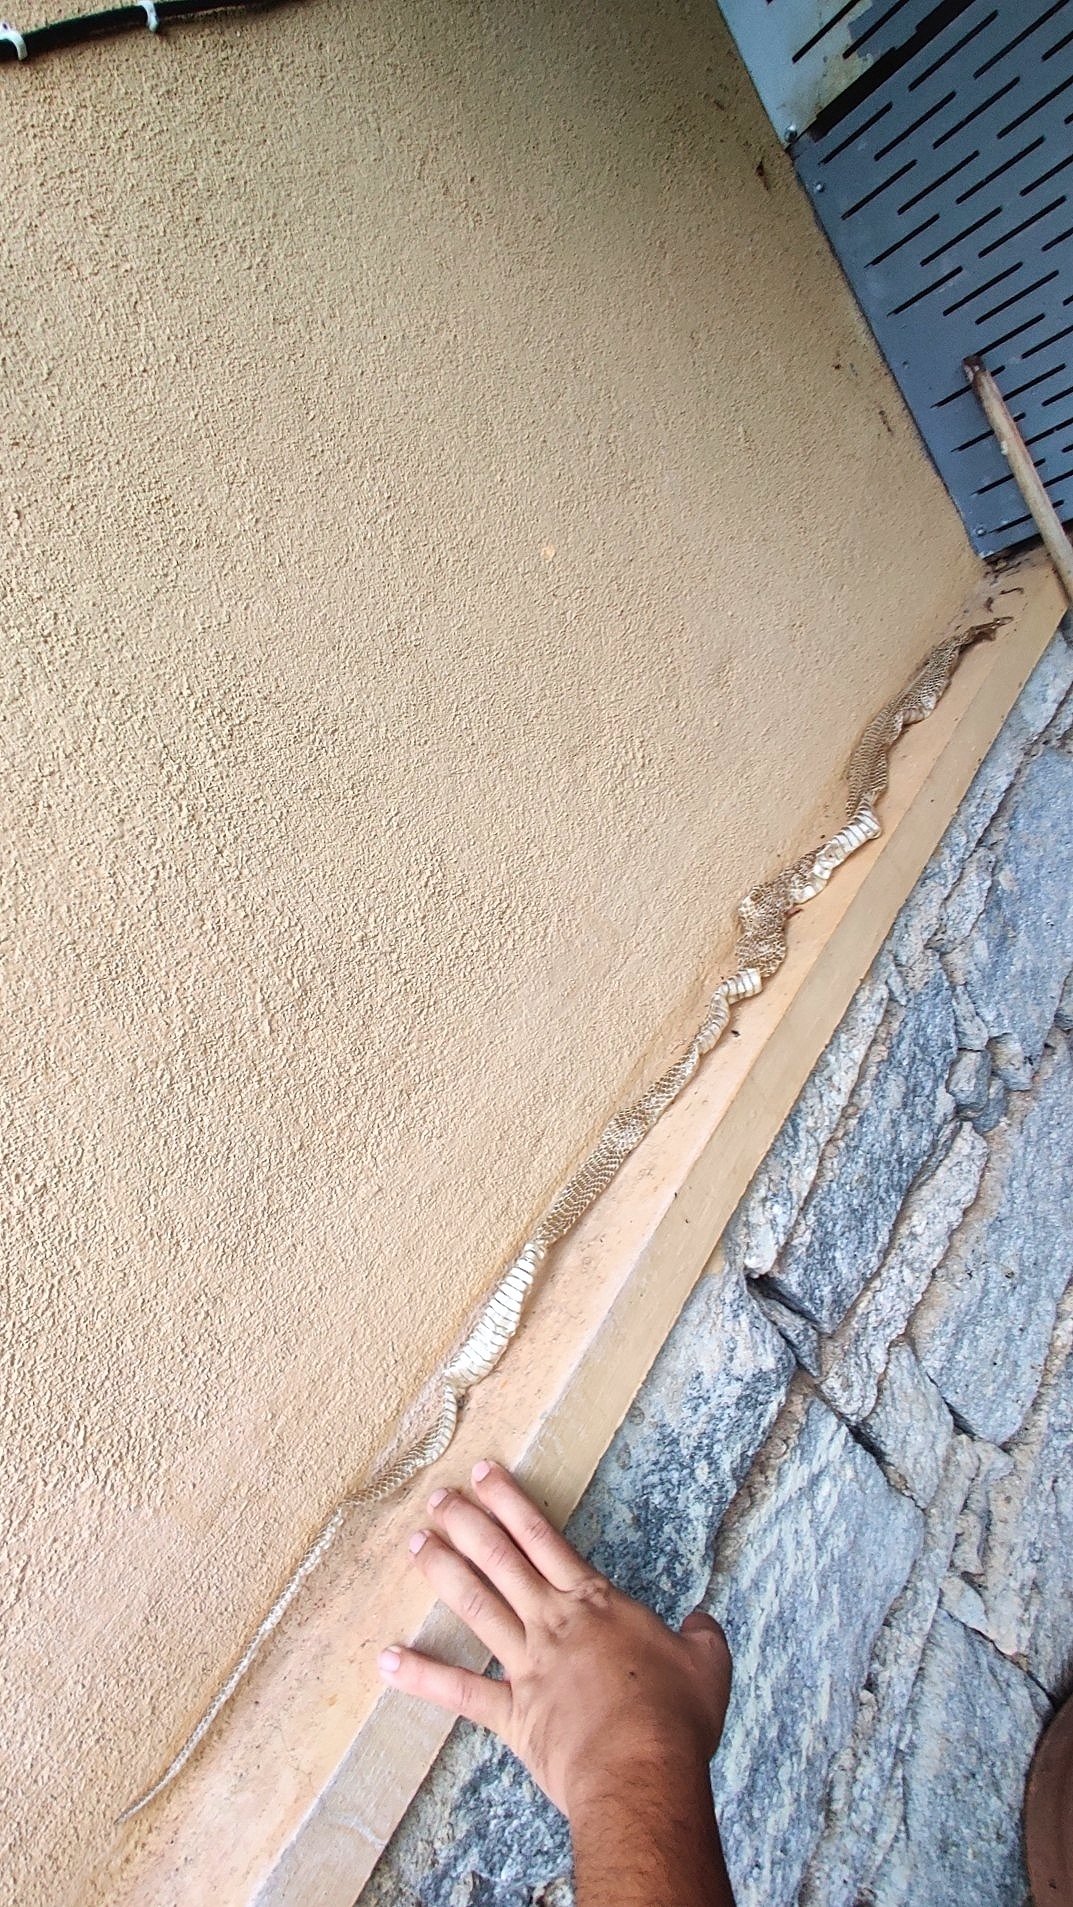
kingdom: Animalia
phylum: Chordata
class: Squamata
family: Elapidae
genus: Naja
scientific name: Naja naja
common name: Indian cobra
